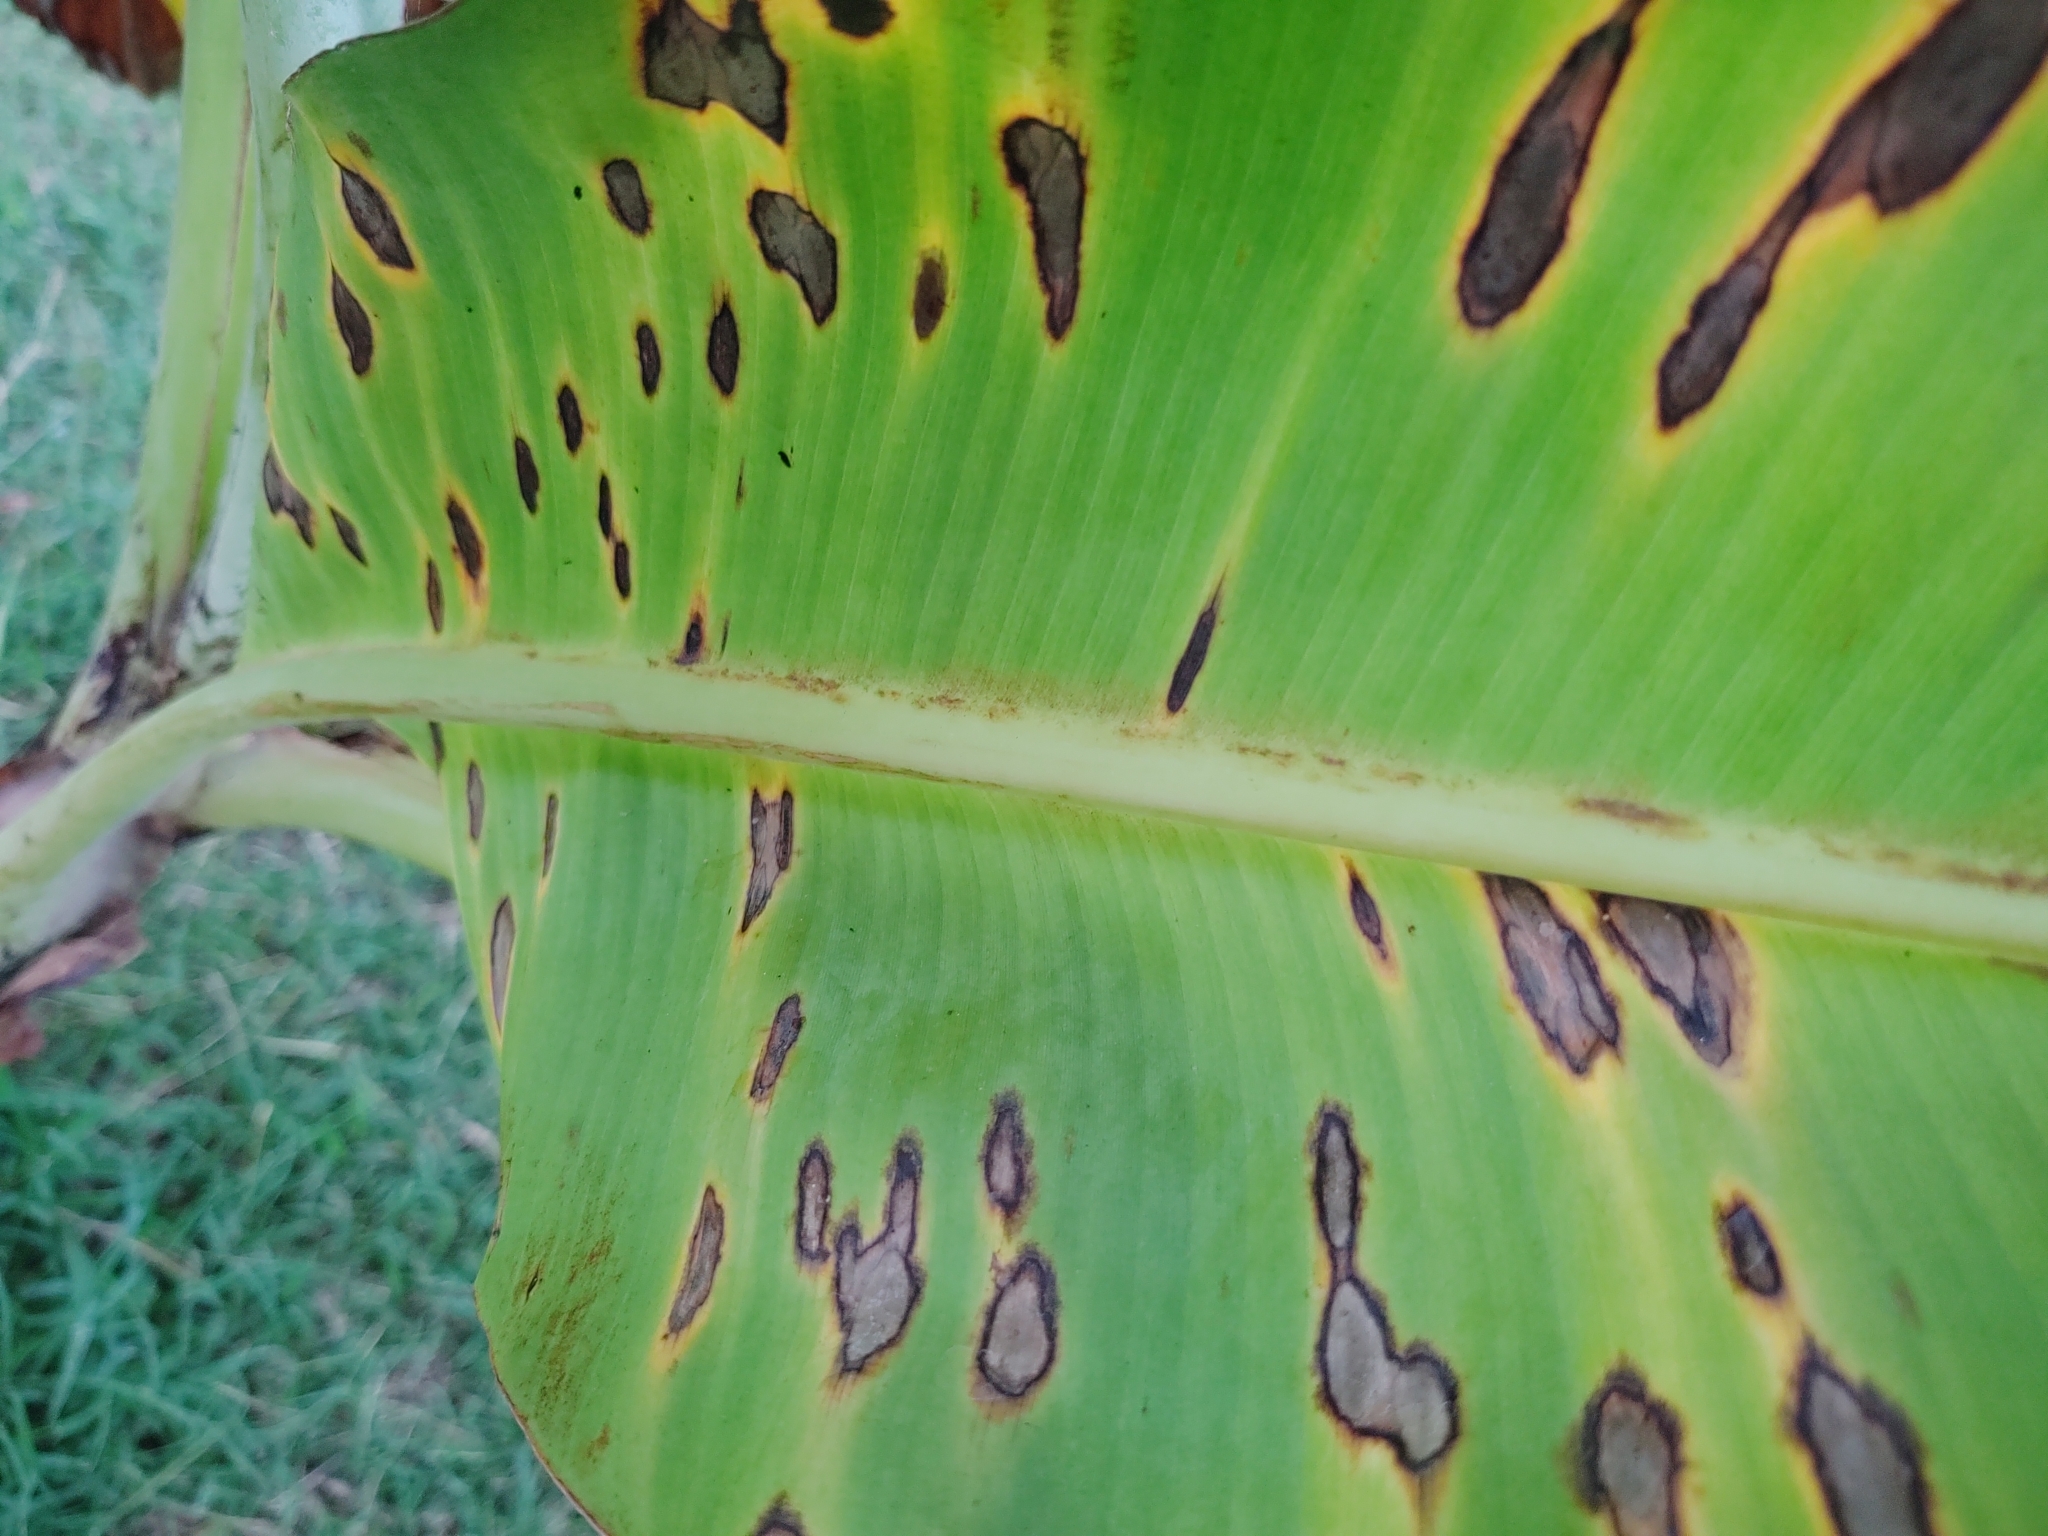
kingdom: Fungi
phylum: Ascomycota
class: Dothideomycetes
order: Mycosphaerellales
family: Mycosphaerellaceae
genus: Pseudocercospora
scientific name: Pseudocercospora musicola
